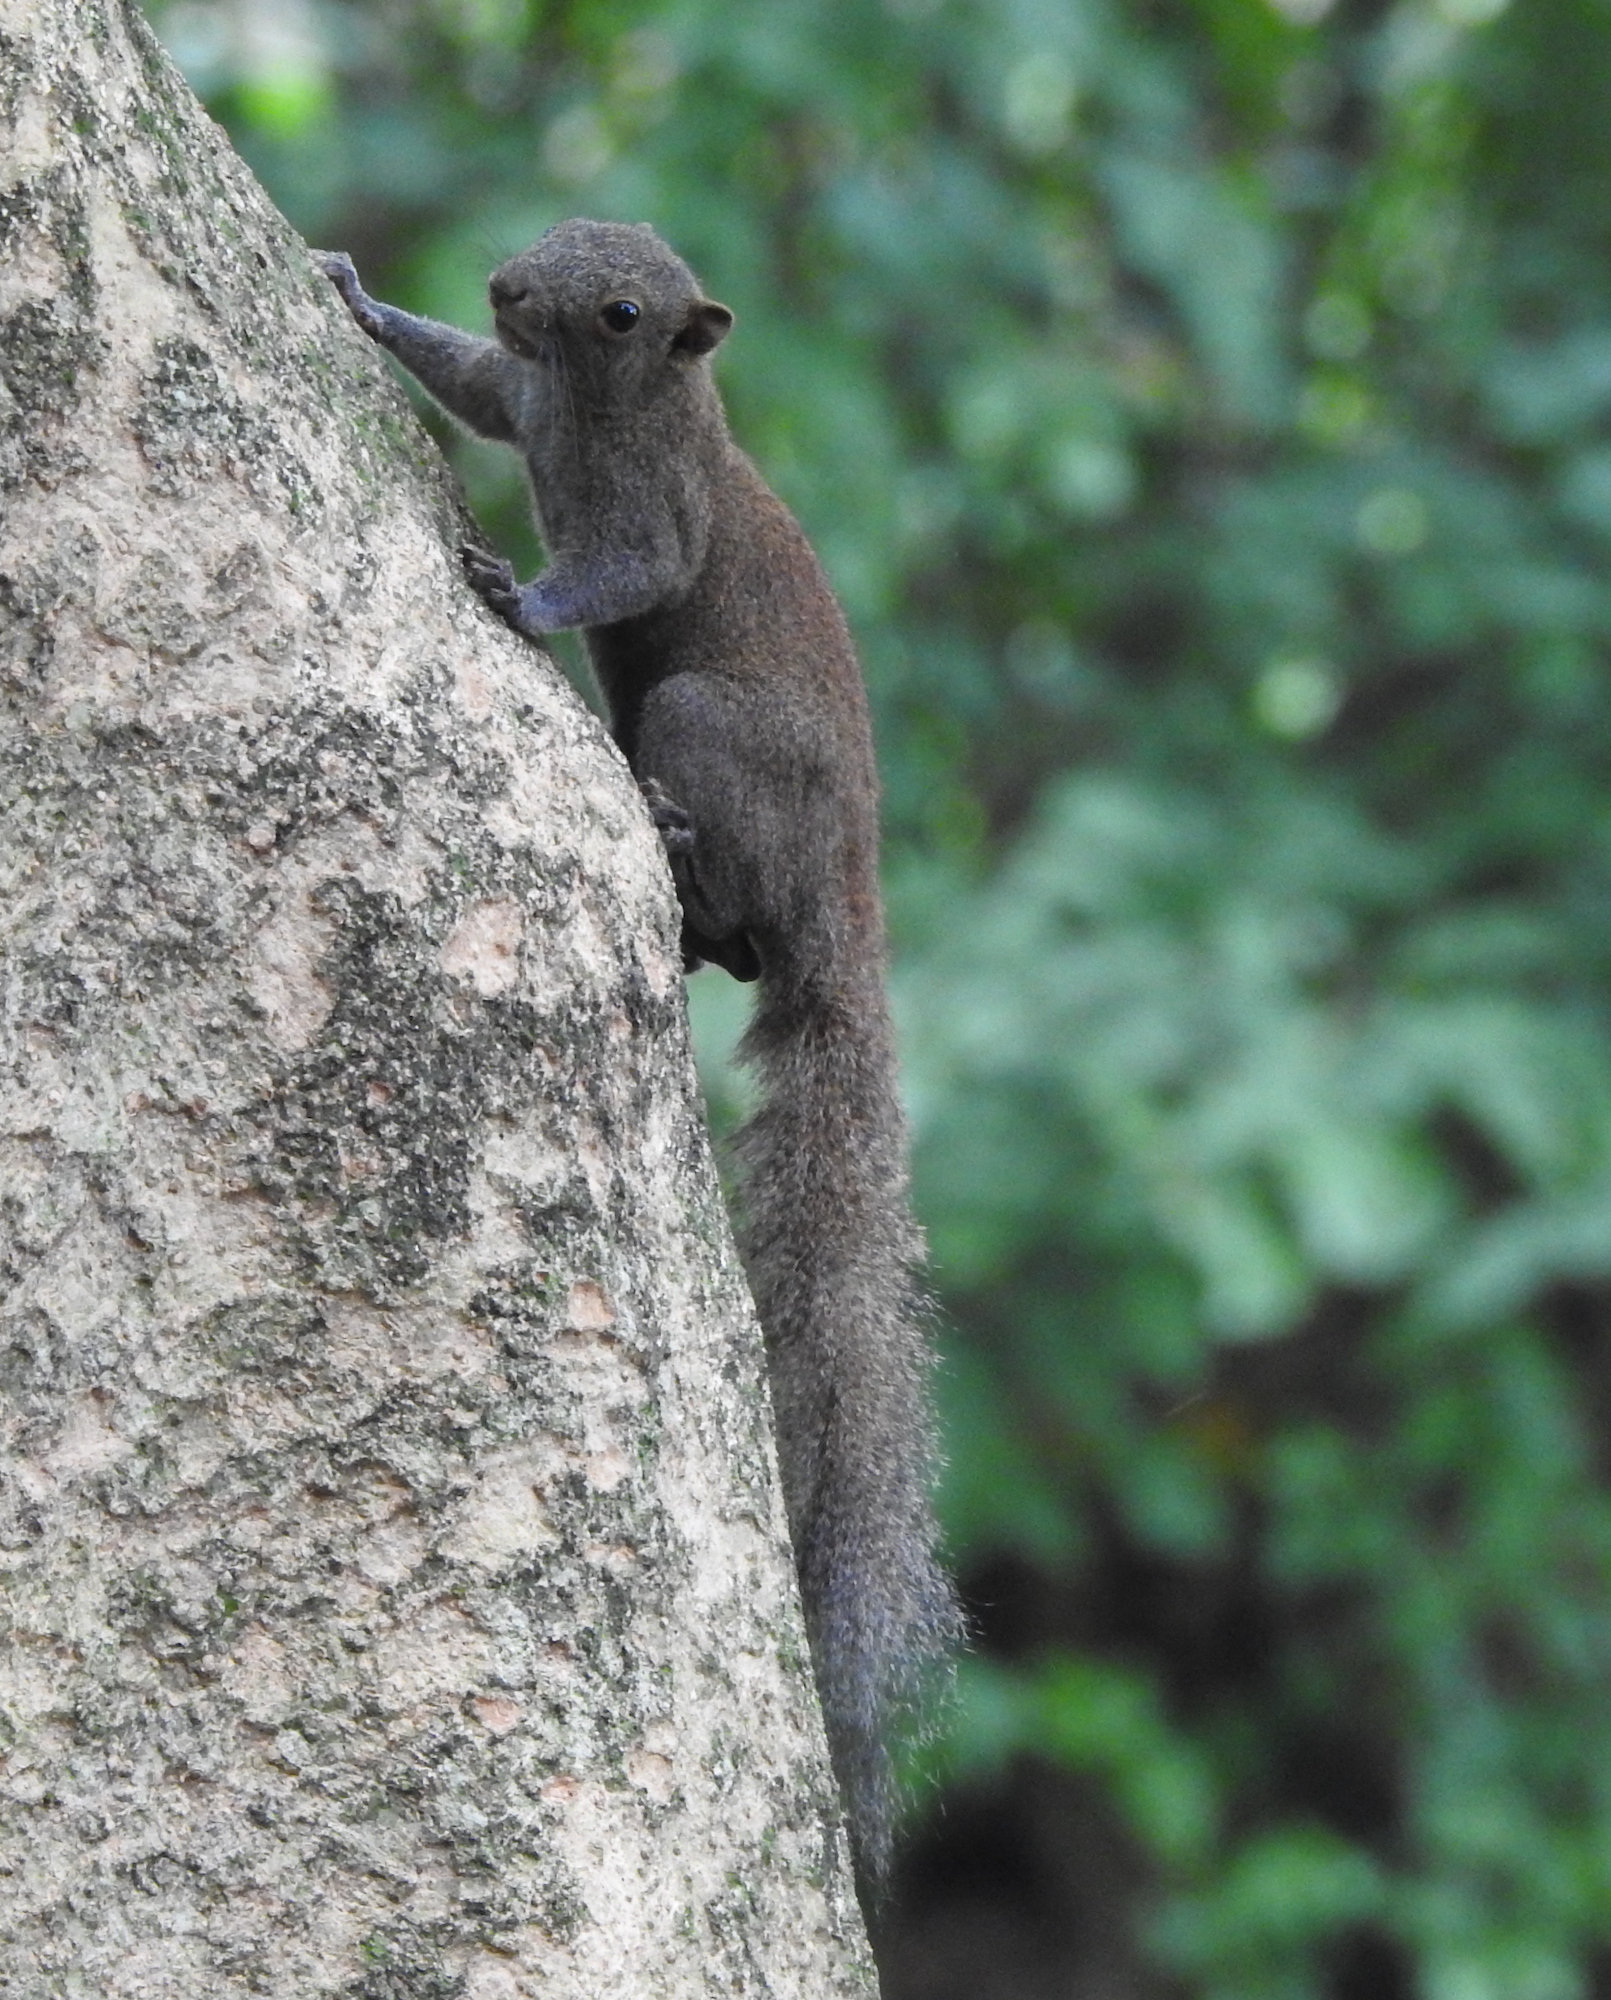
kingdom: Animalia
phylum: Chordata
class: Mammalia
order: Rodentia
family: Sciuridae
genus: Callosciurus
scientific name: Callosciurus caniceps
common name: Gray-bellied squirrel
